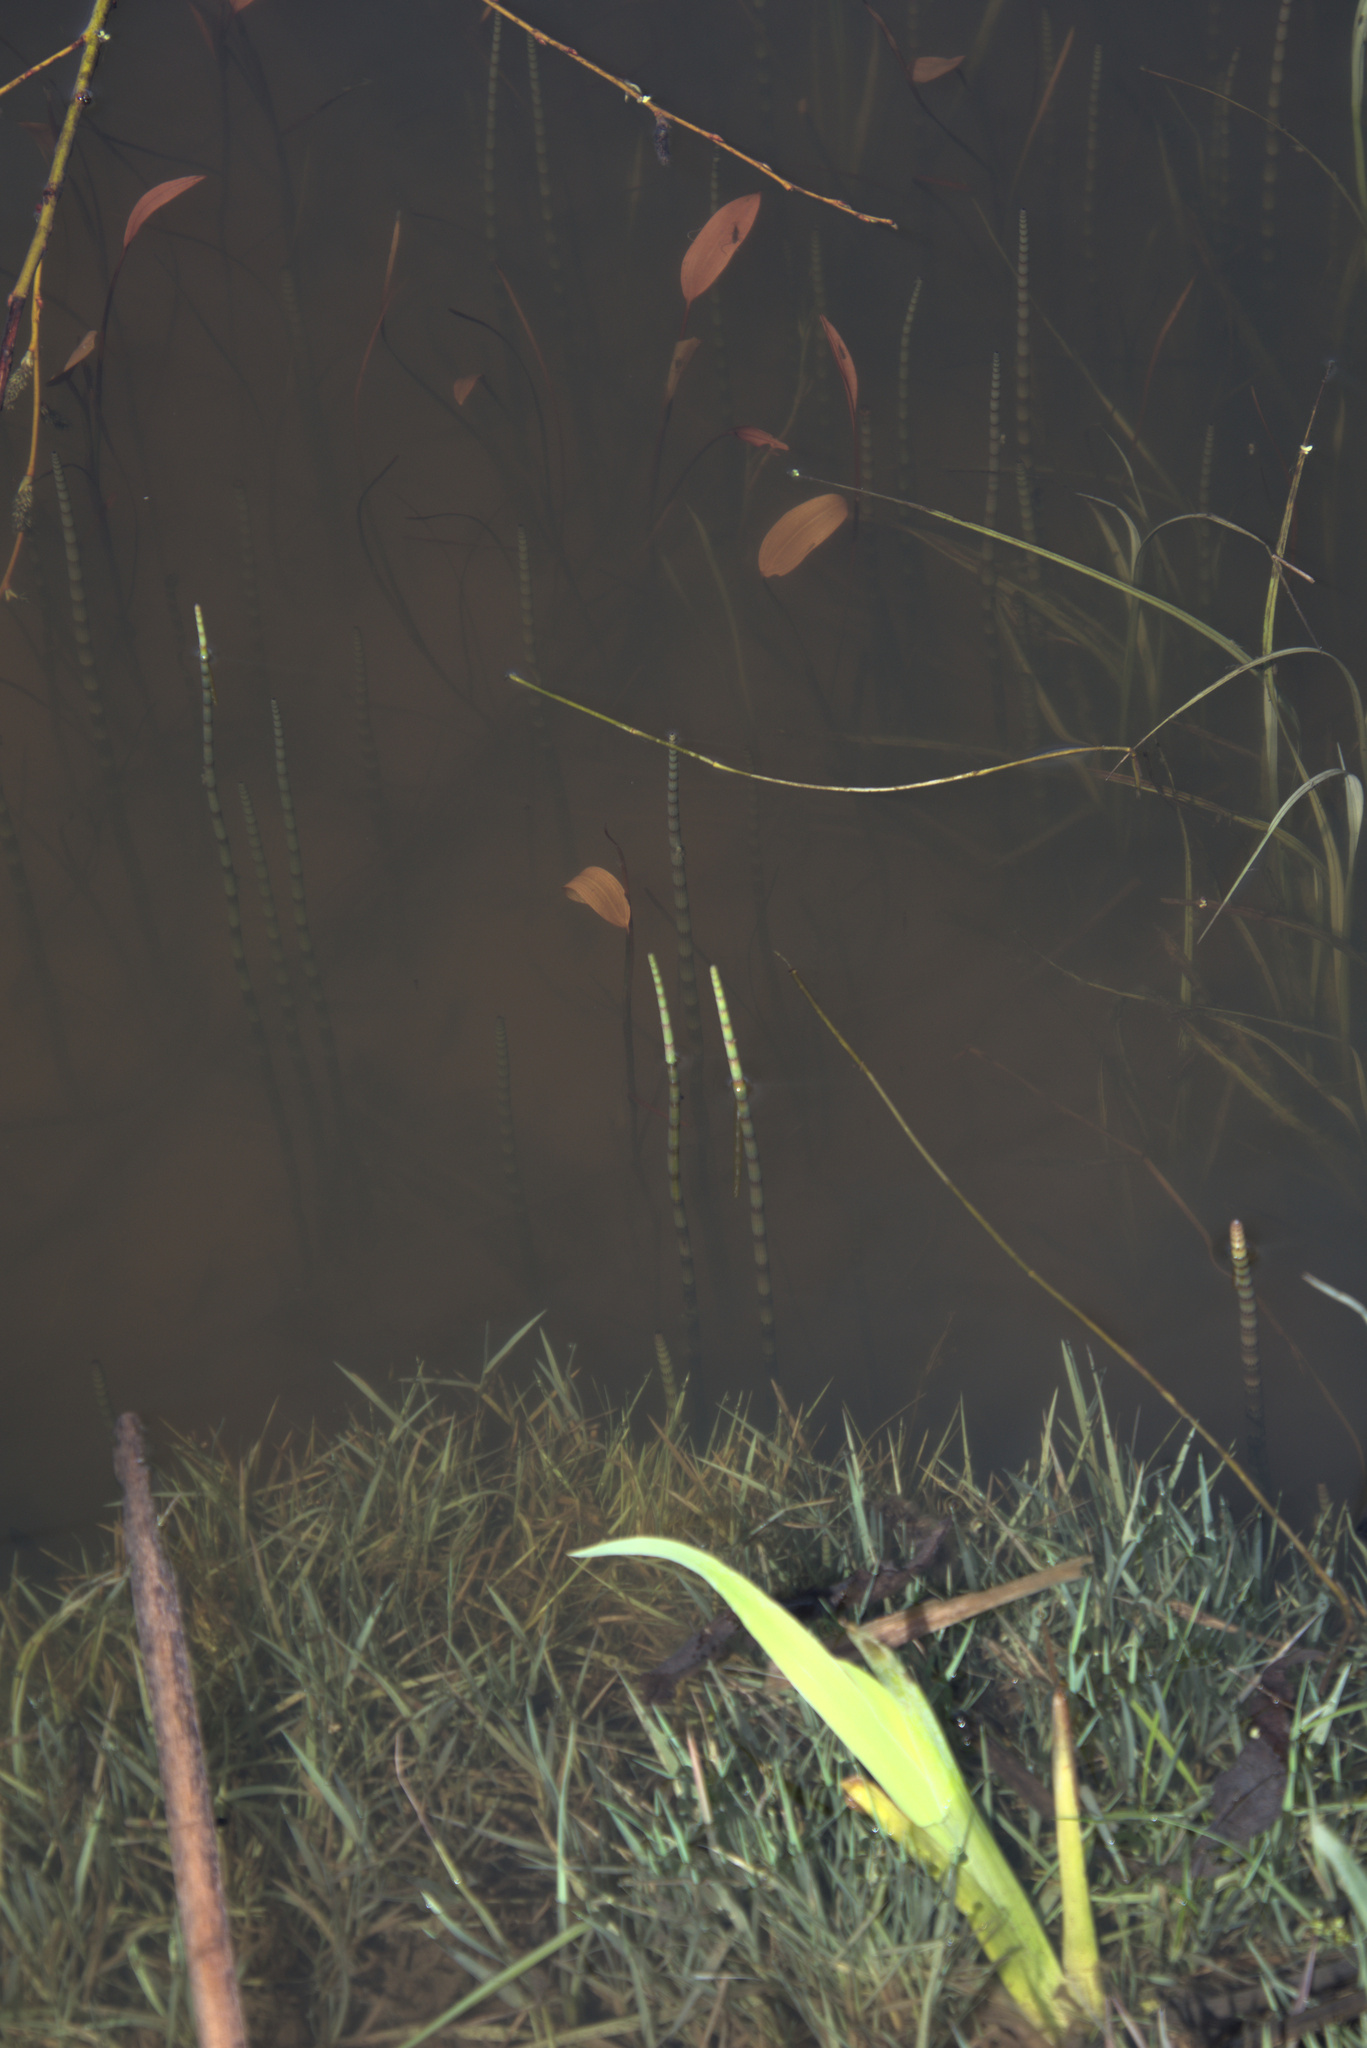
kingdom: Plantae
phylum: Tracheophyta
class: Polypodiopsida
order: Equisetales
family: Equisetaceae
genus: Equisetum
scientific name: Equisetum fluviatile
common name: Water horsetail
